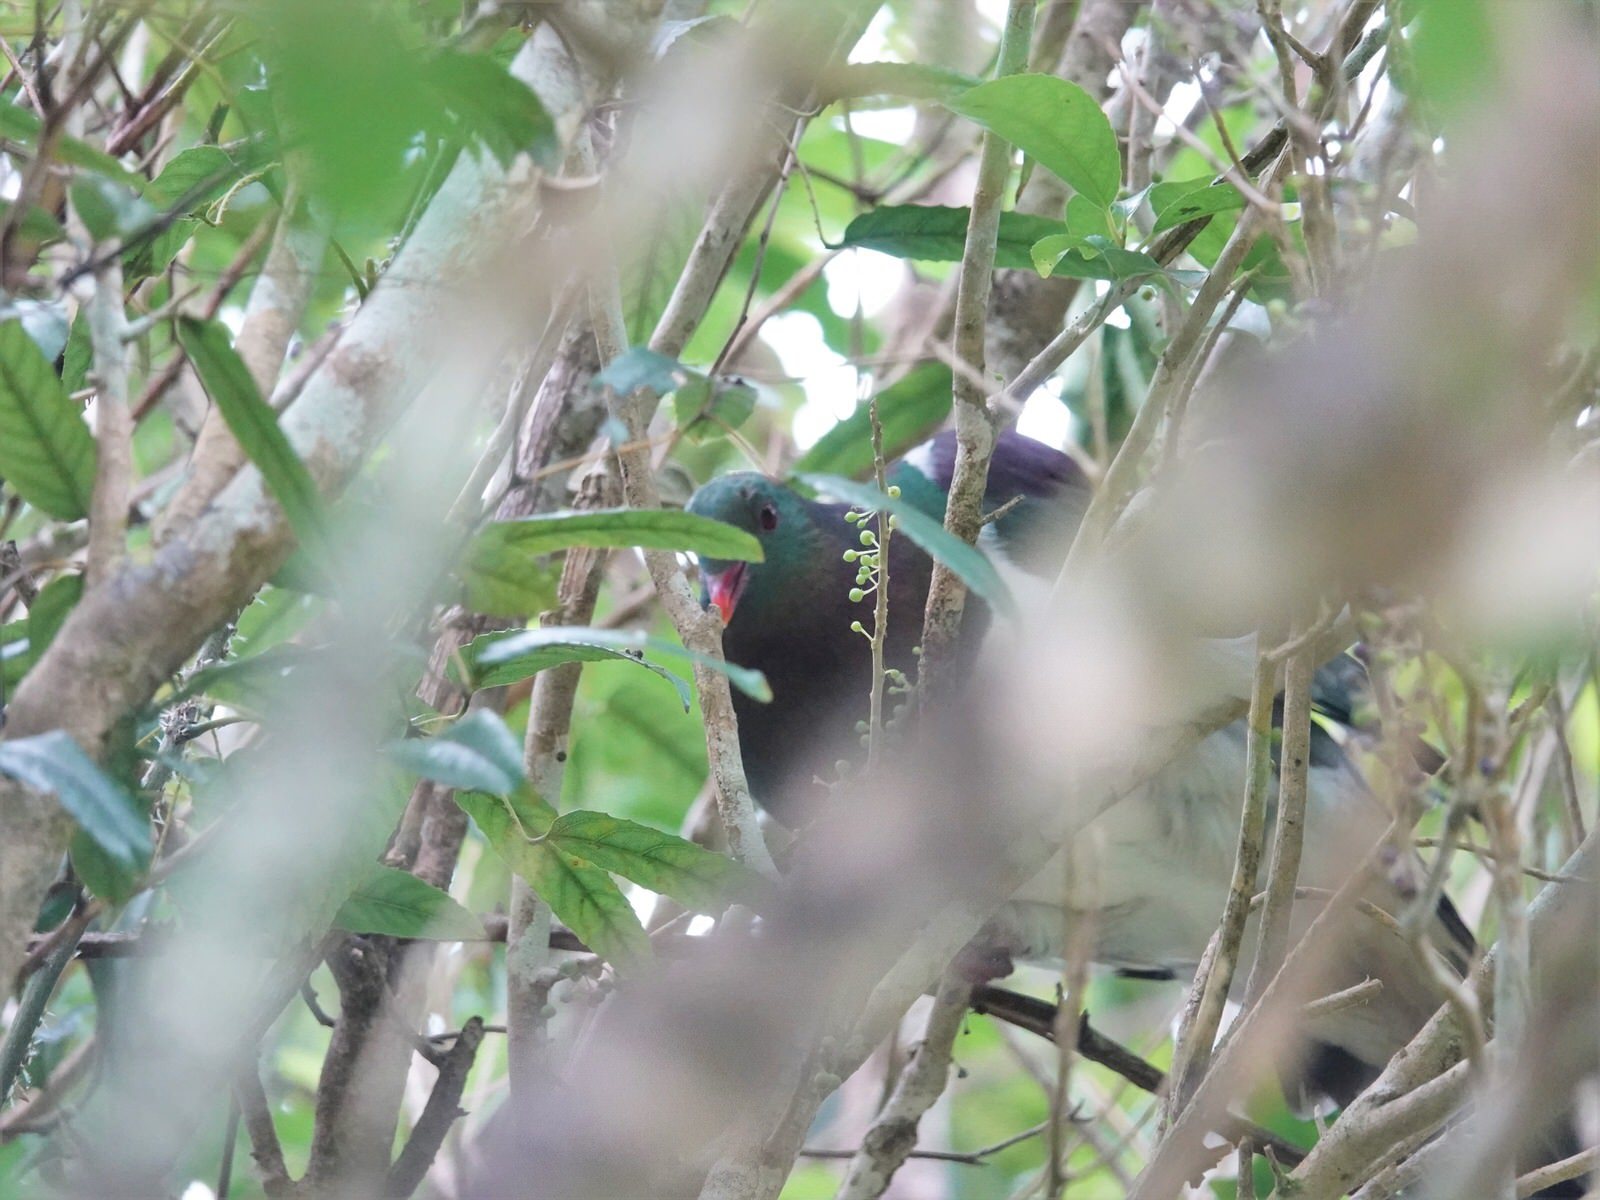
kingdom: Animalia
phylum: Chordata
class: Aves
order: Columbiformes
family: Columbidae
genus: Hemiphaga
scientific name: Hemiphaga novaeseelandiae
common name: New zealand pigeon
